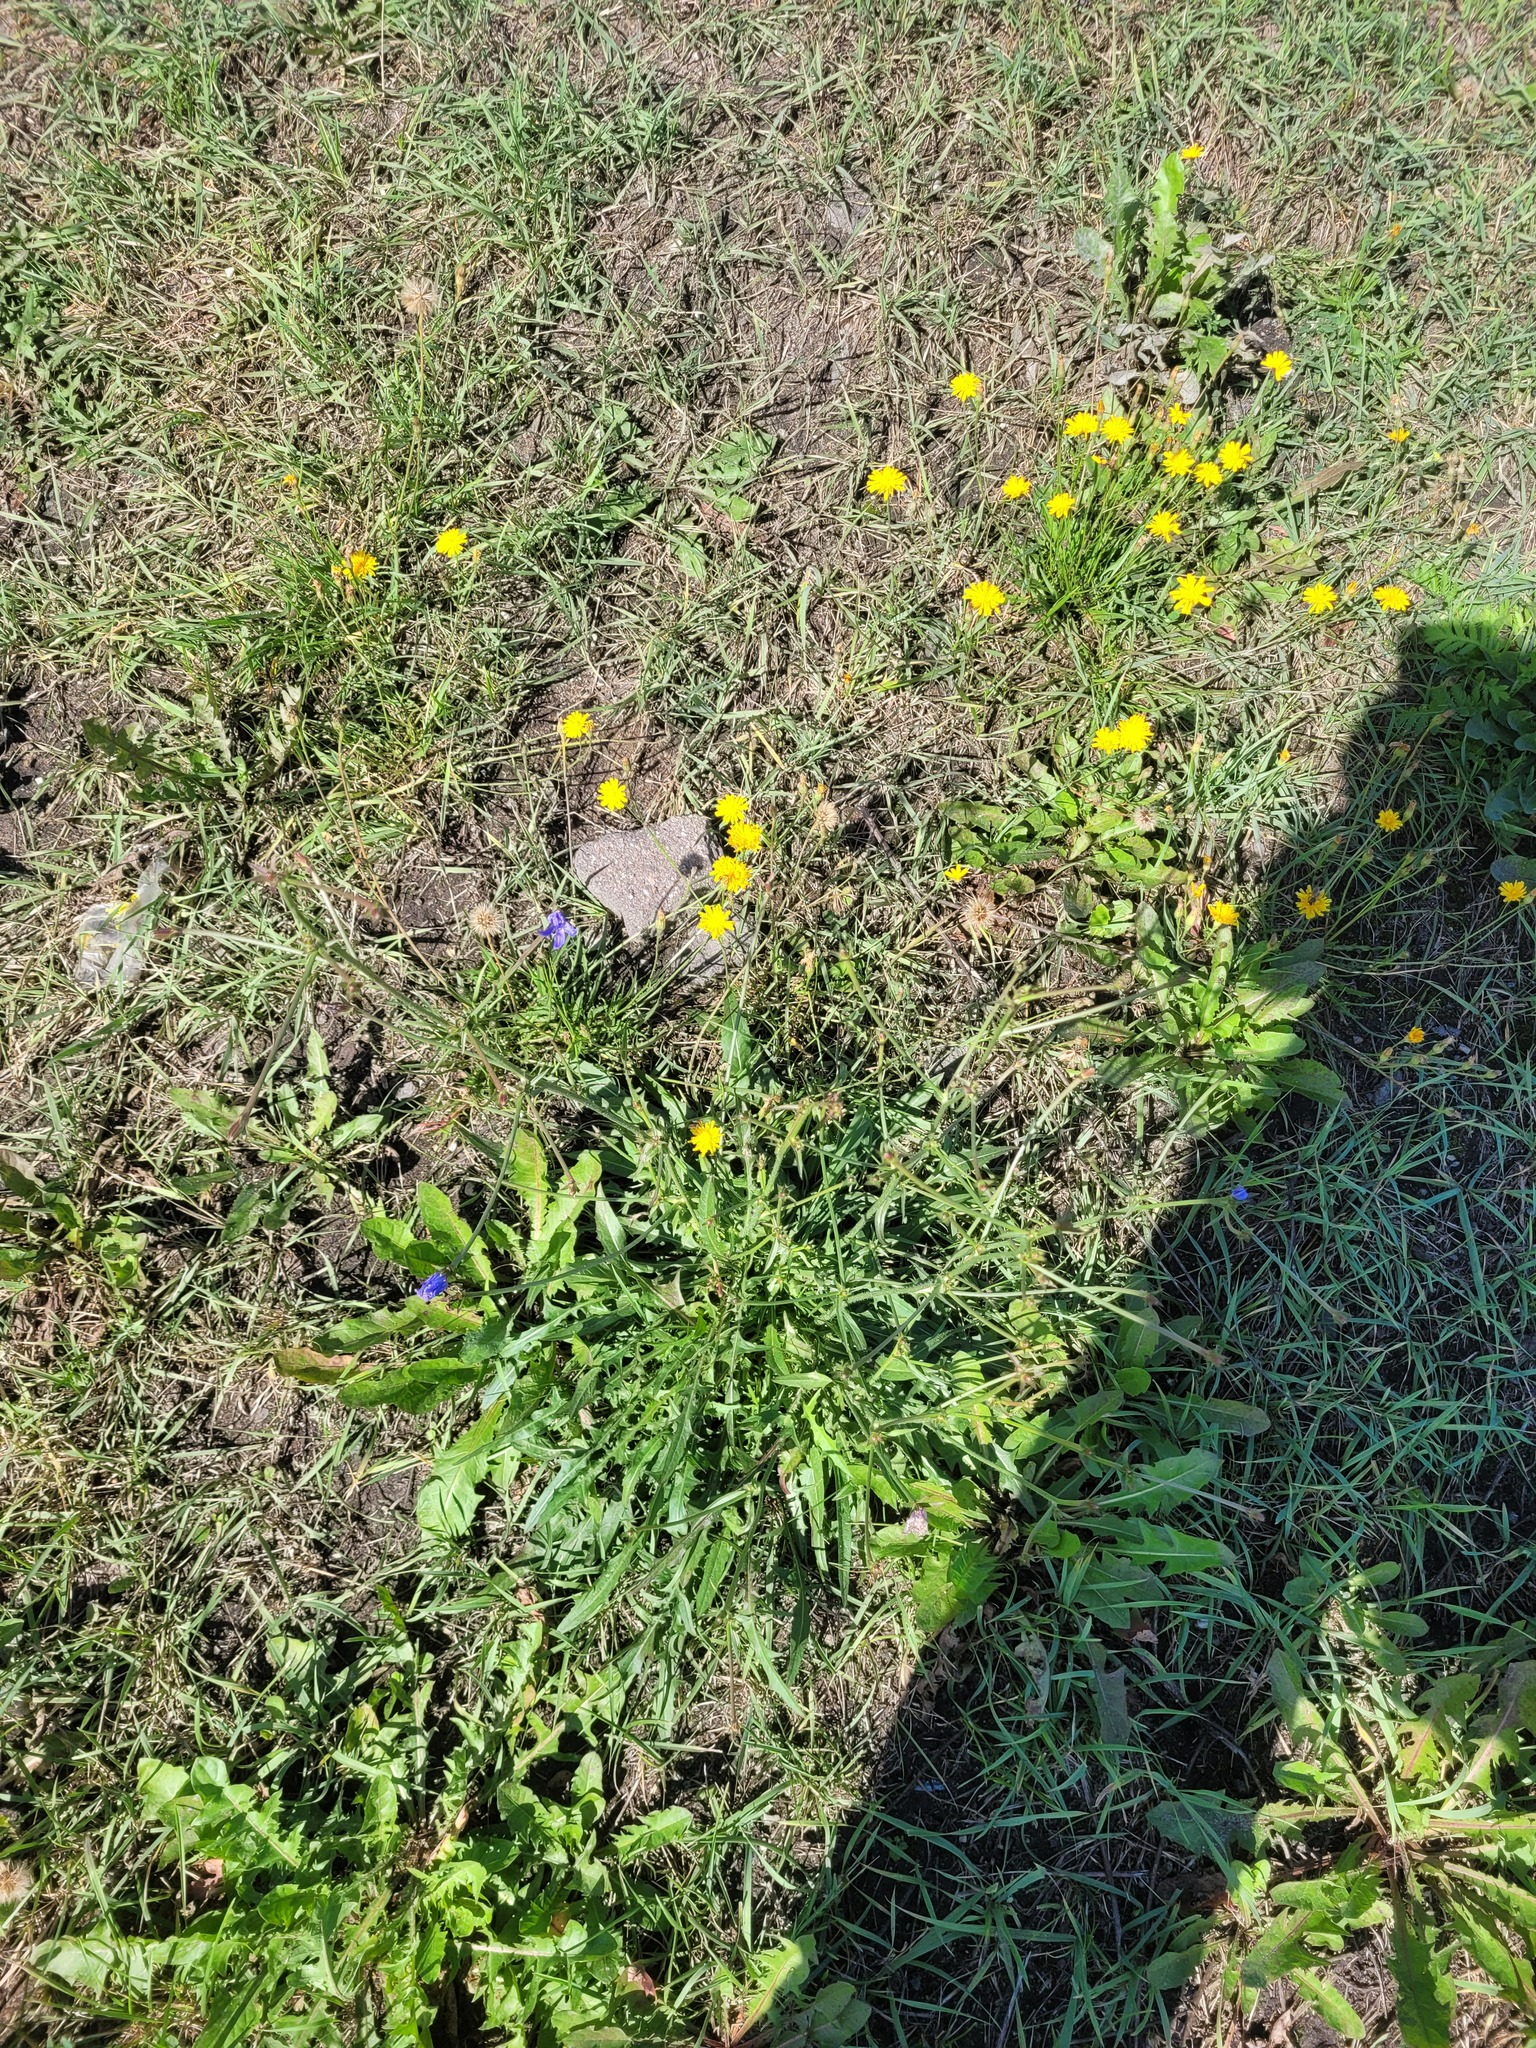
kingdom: Plantae
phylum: Tracheophyta
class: Magnoliopsida
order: Asterales
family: Asteraceae
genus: Cichorium
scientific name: Cichorium intybus
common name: Chicory
